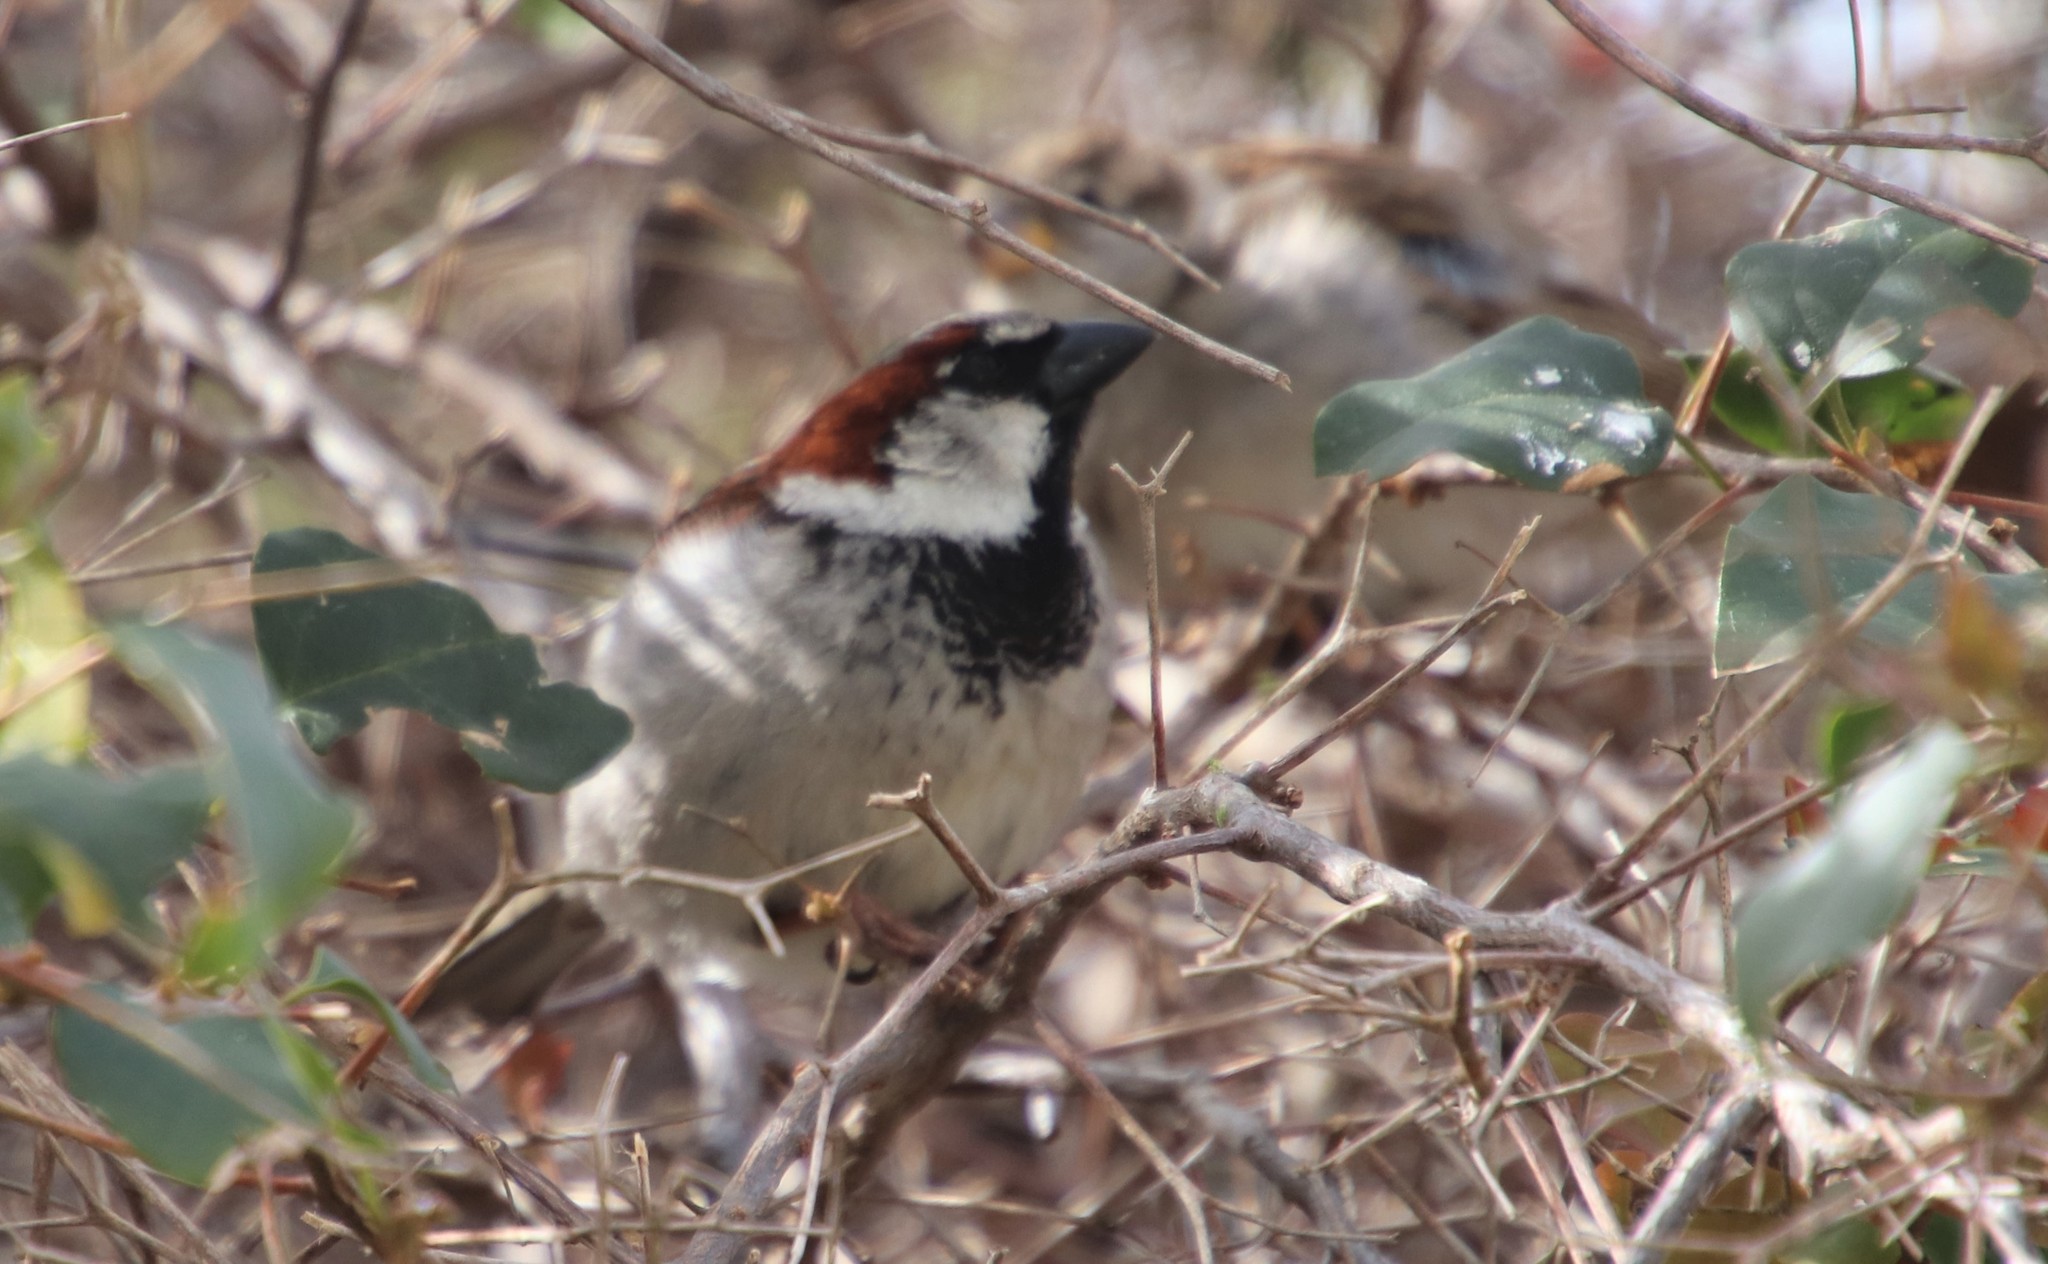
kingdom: Animalia
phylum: Chordata
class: Aves
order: Passeriformes
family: Passeridae
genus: Passer
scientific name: Passer domesticus
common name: House sparrow
